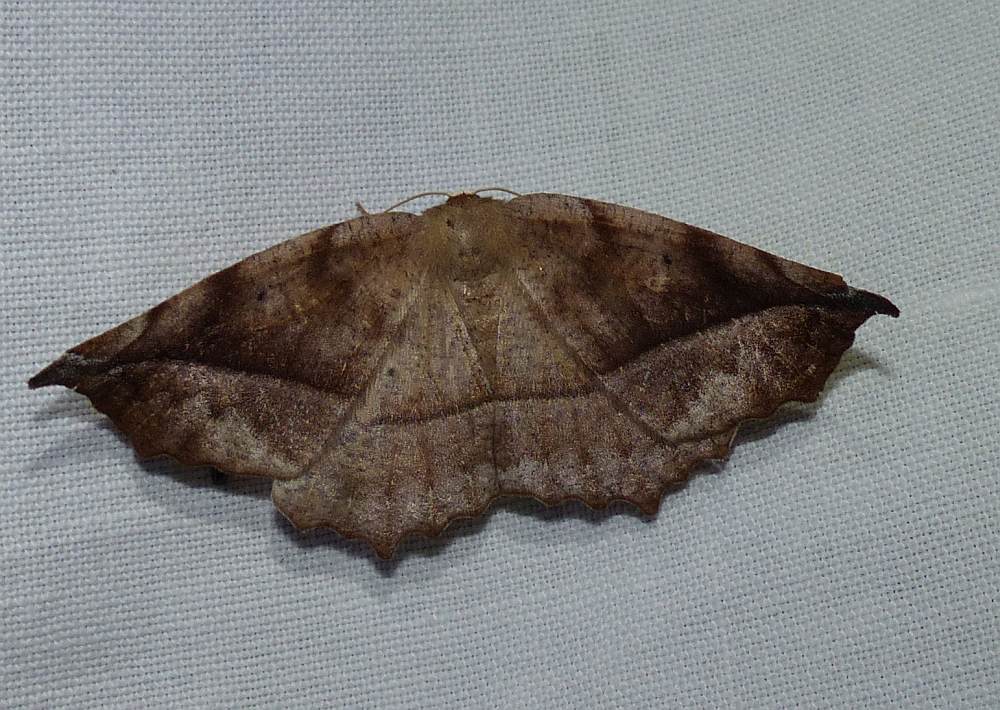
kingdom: Animalia
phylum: Arthropoda
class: Insecta
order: Lepidoptera
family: Geometridae
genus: Eutrapela
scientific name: Eutrapela clemataria
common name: Curved-toothed geometer
